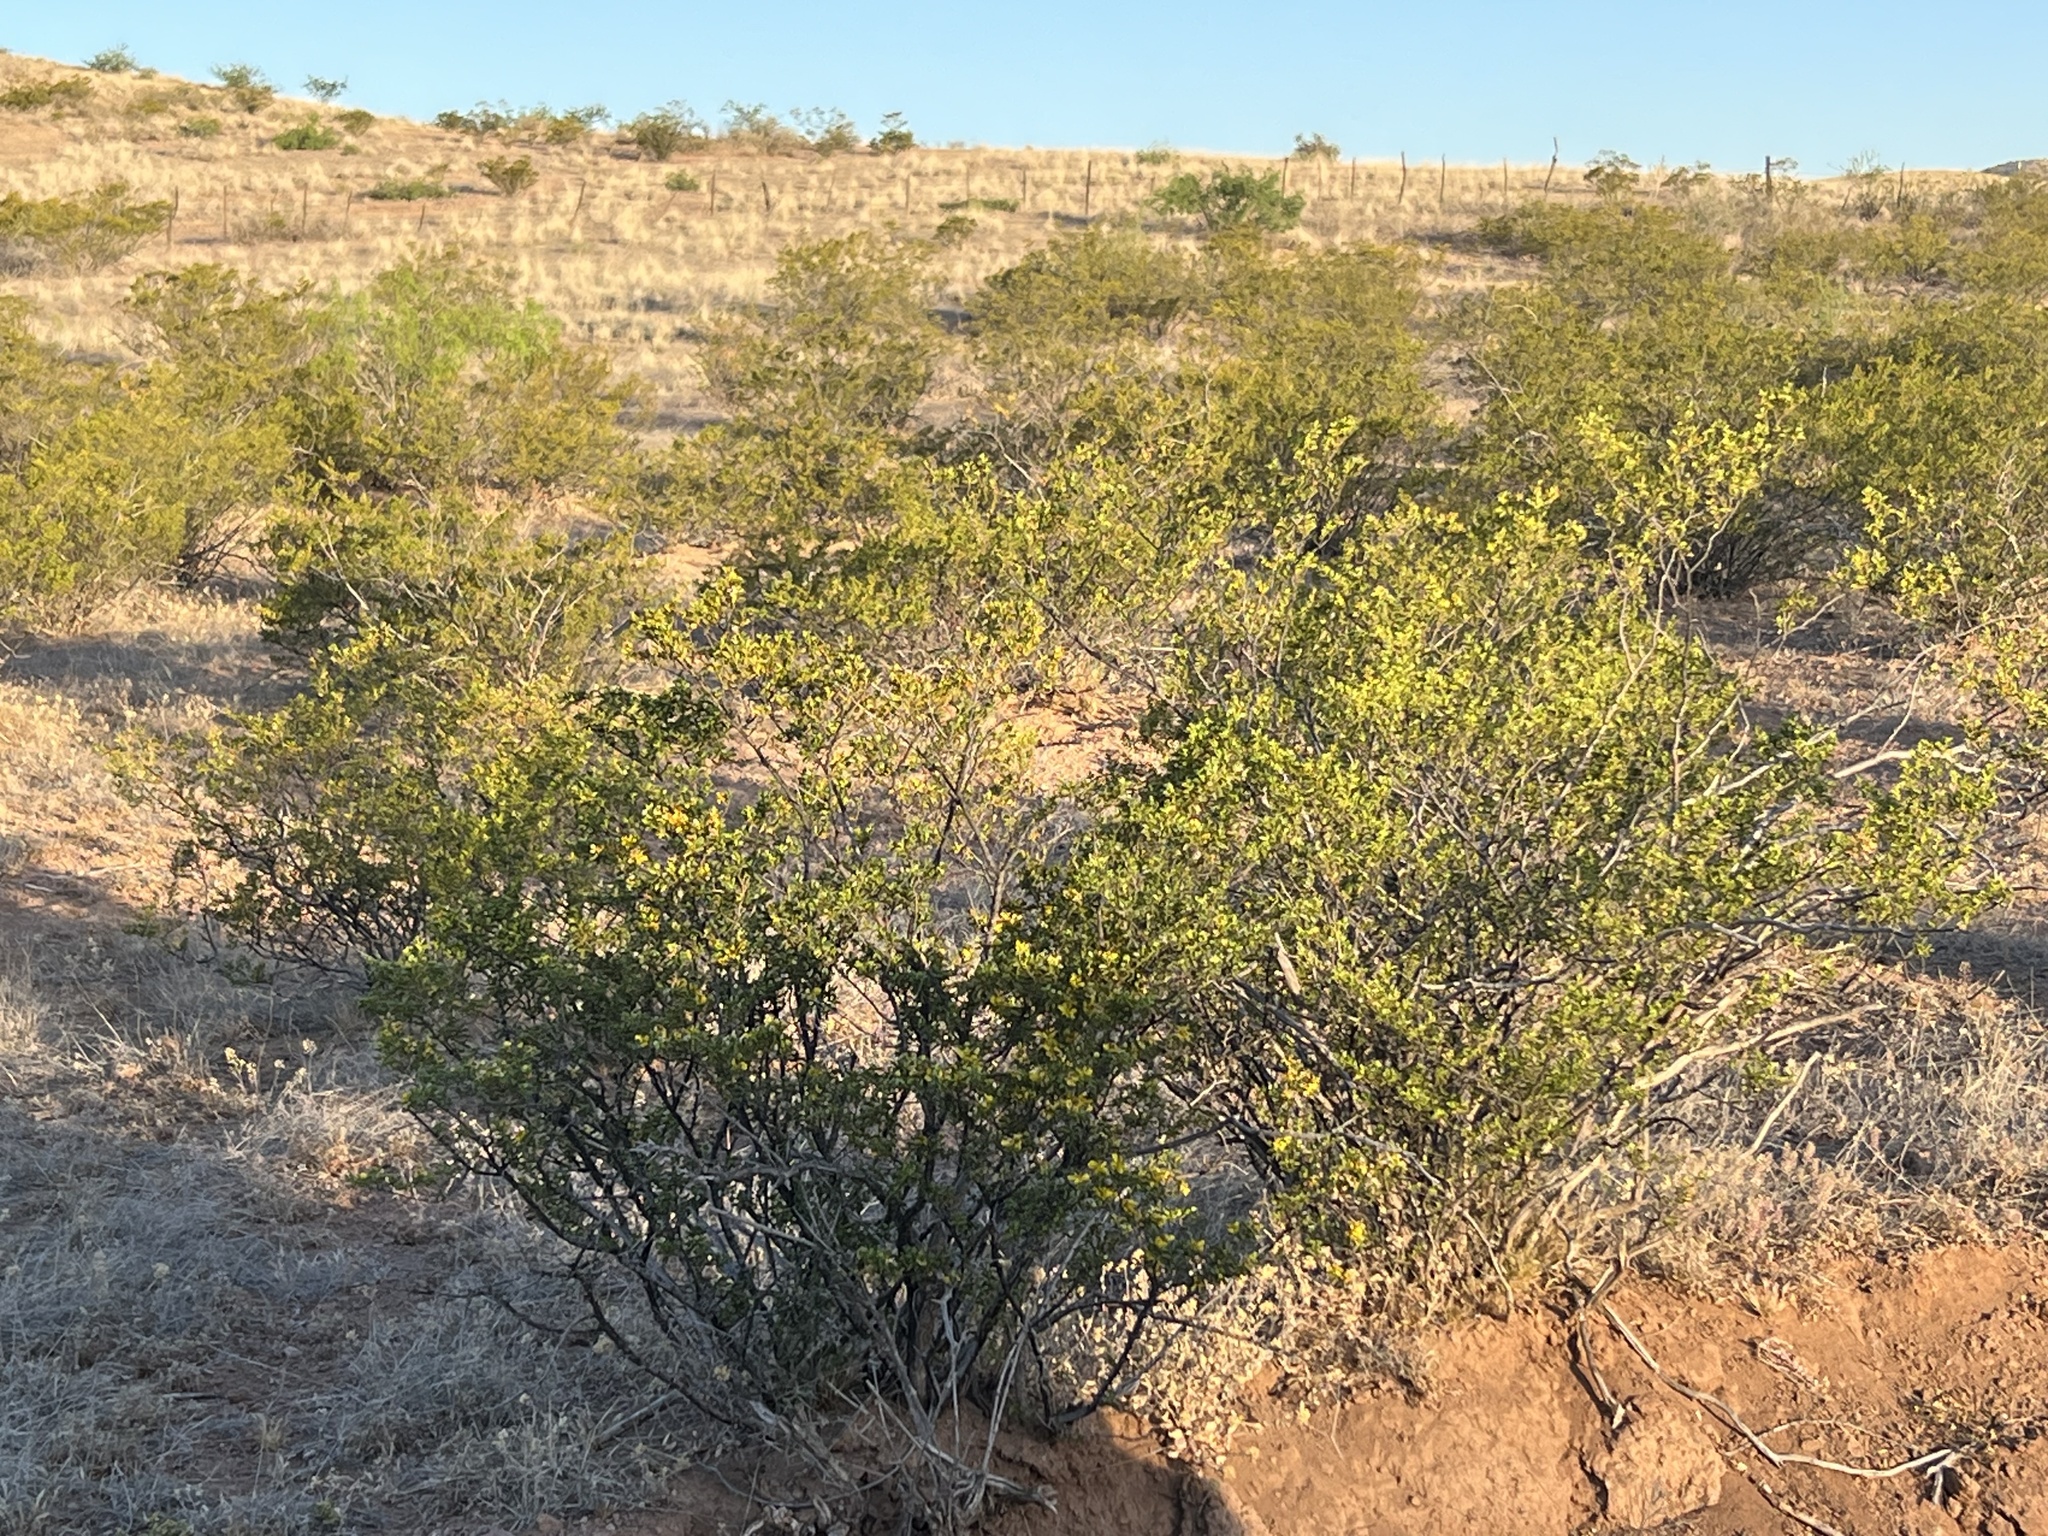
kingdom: Plantae
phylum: Tracheophyta
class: Magnoliopsida
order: Zygophyllales
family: Zygophyllaceae
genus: Larrea
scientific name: Larrea tridentata
